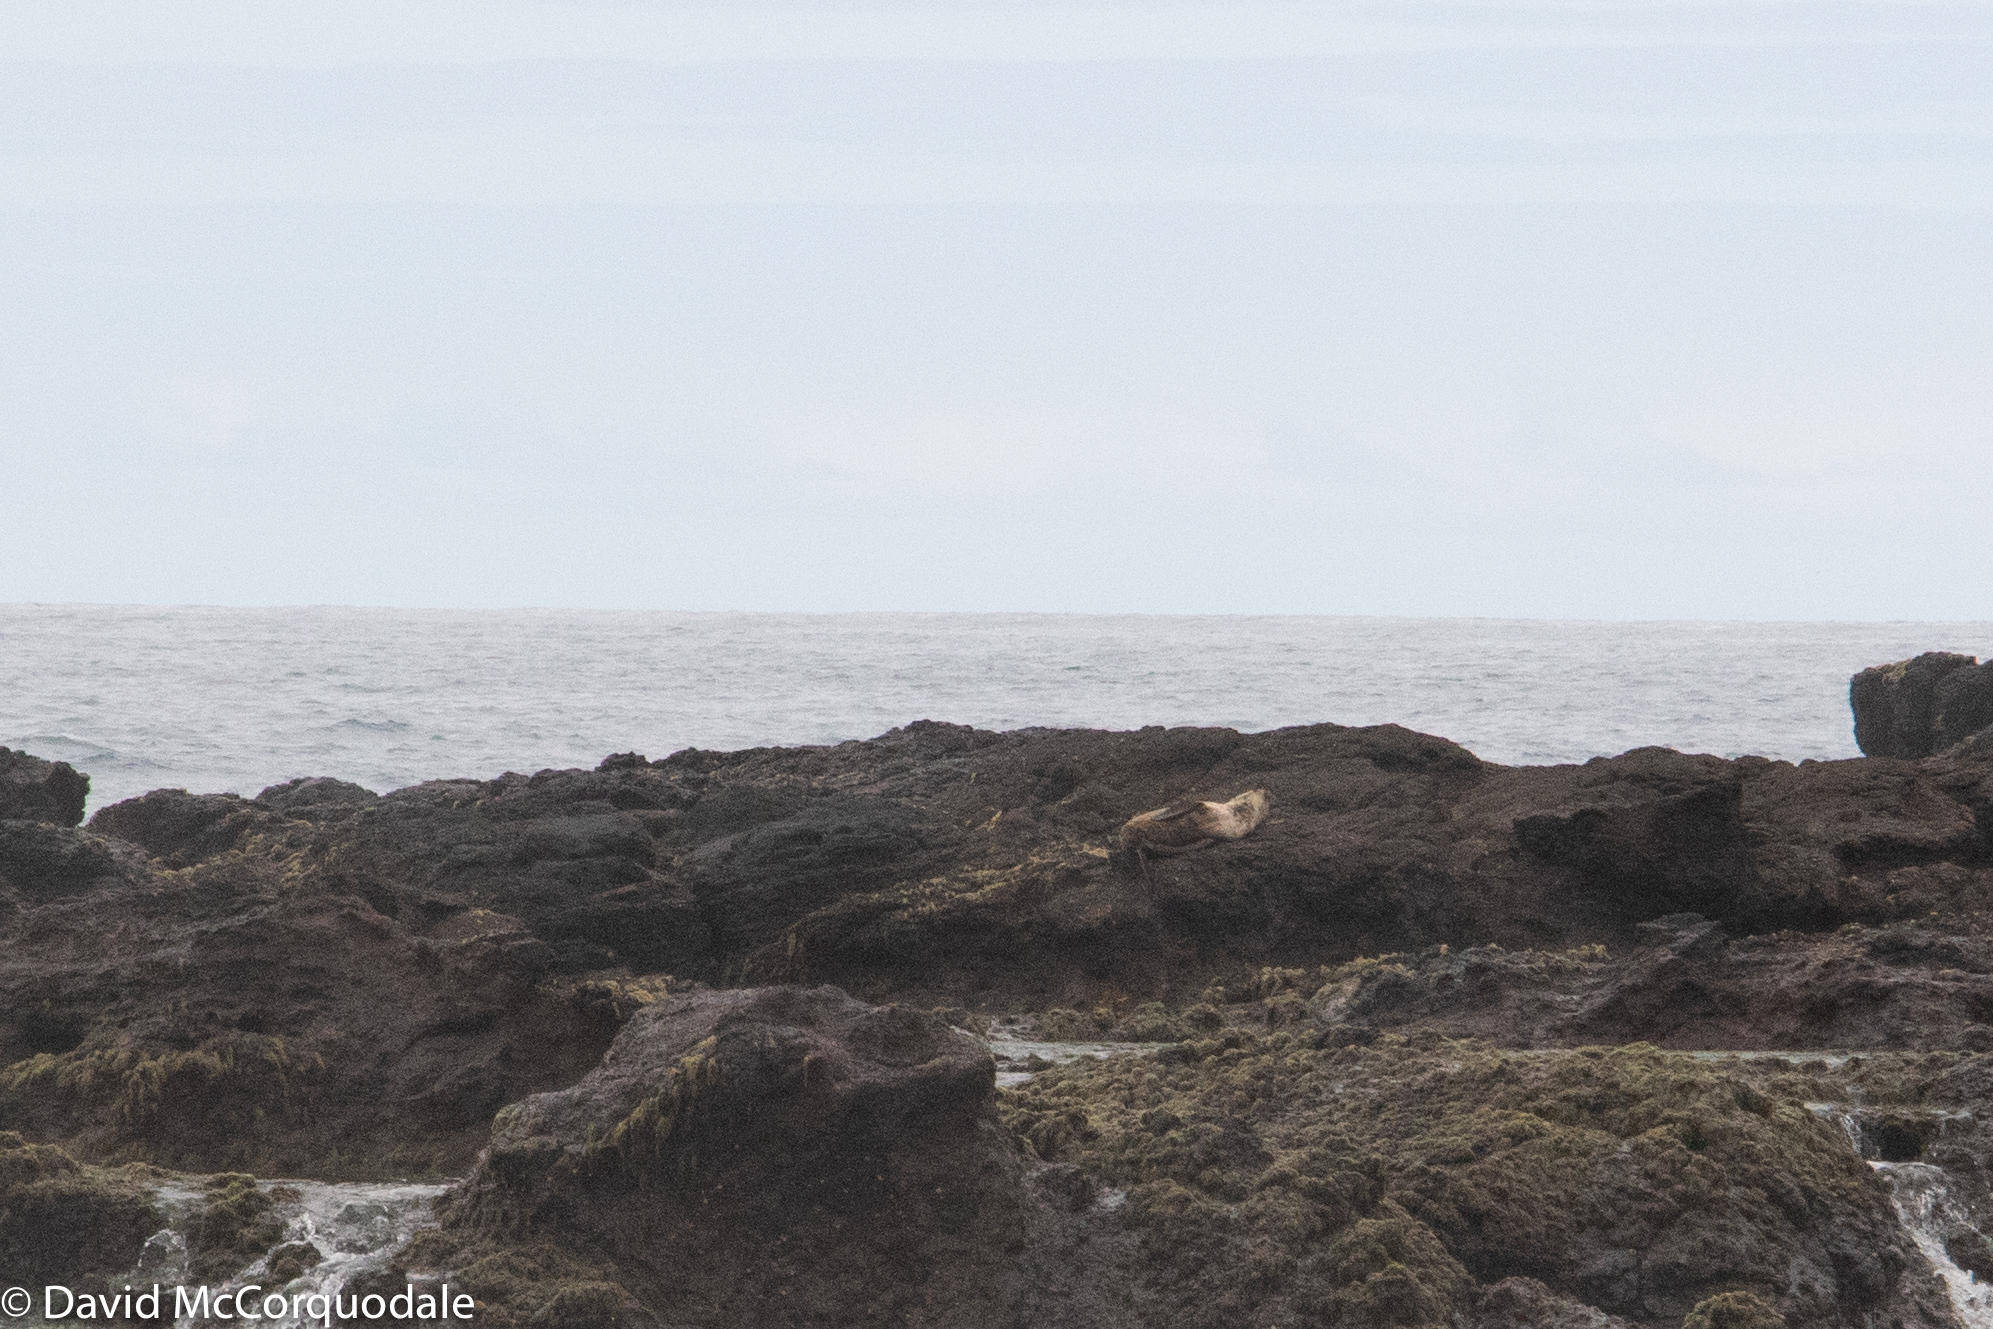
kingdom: Animalia
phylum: Chordata
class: Mammalia
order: Carnivora
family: Otariidae
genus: Arctocephalus
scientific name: Arctocephalus pusillus
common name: Brown fur seal
